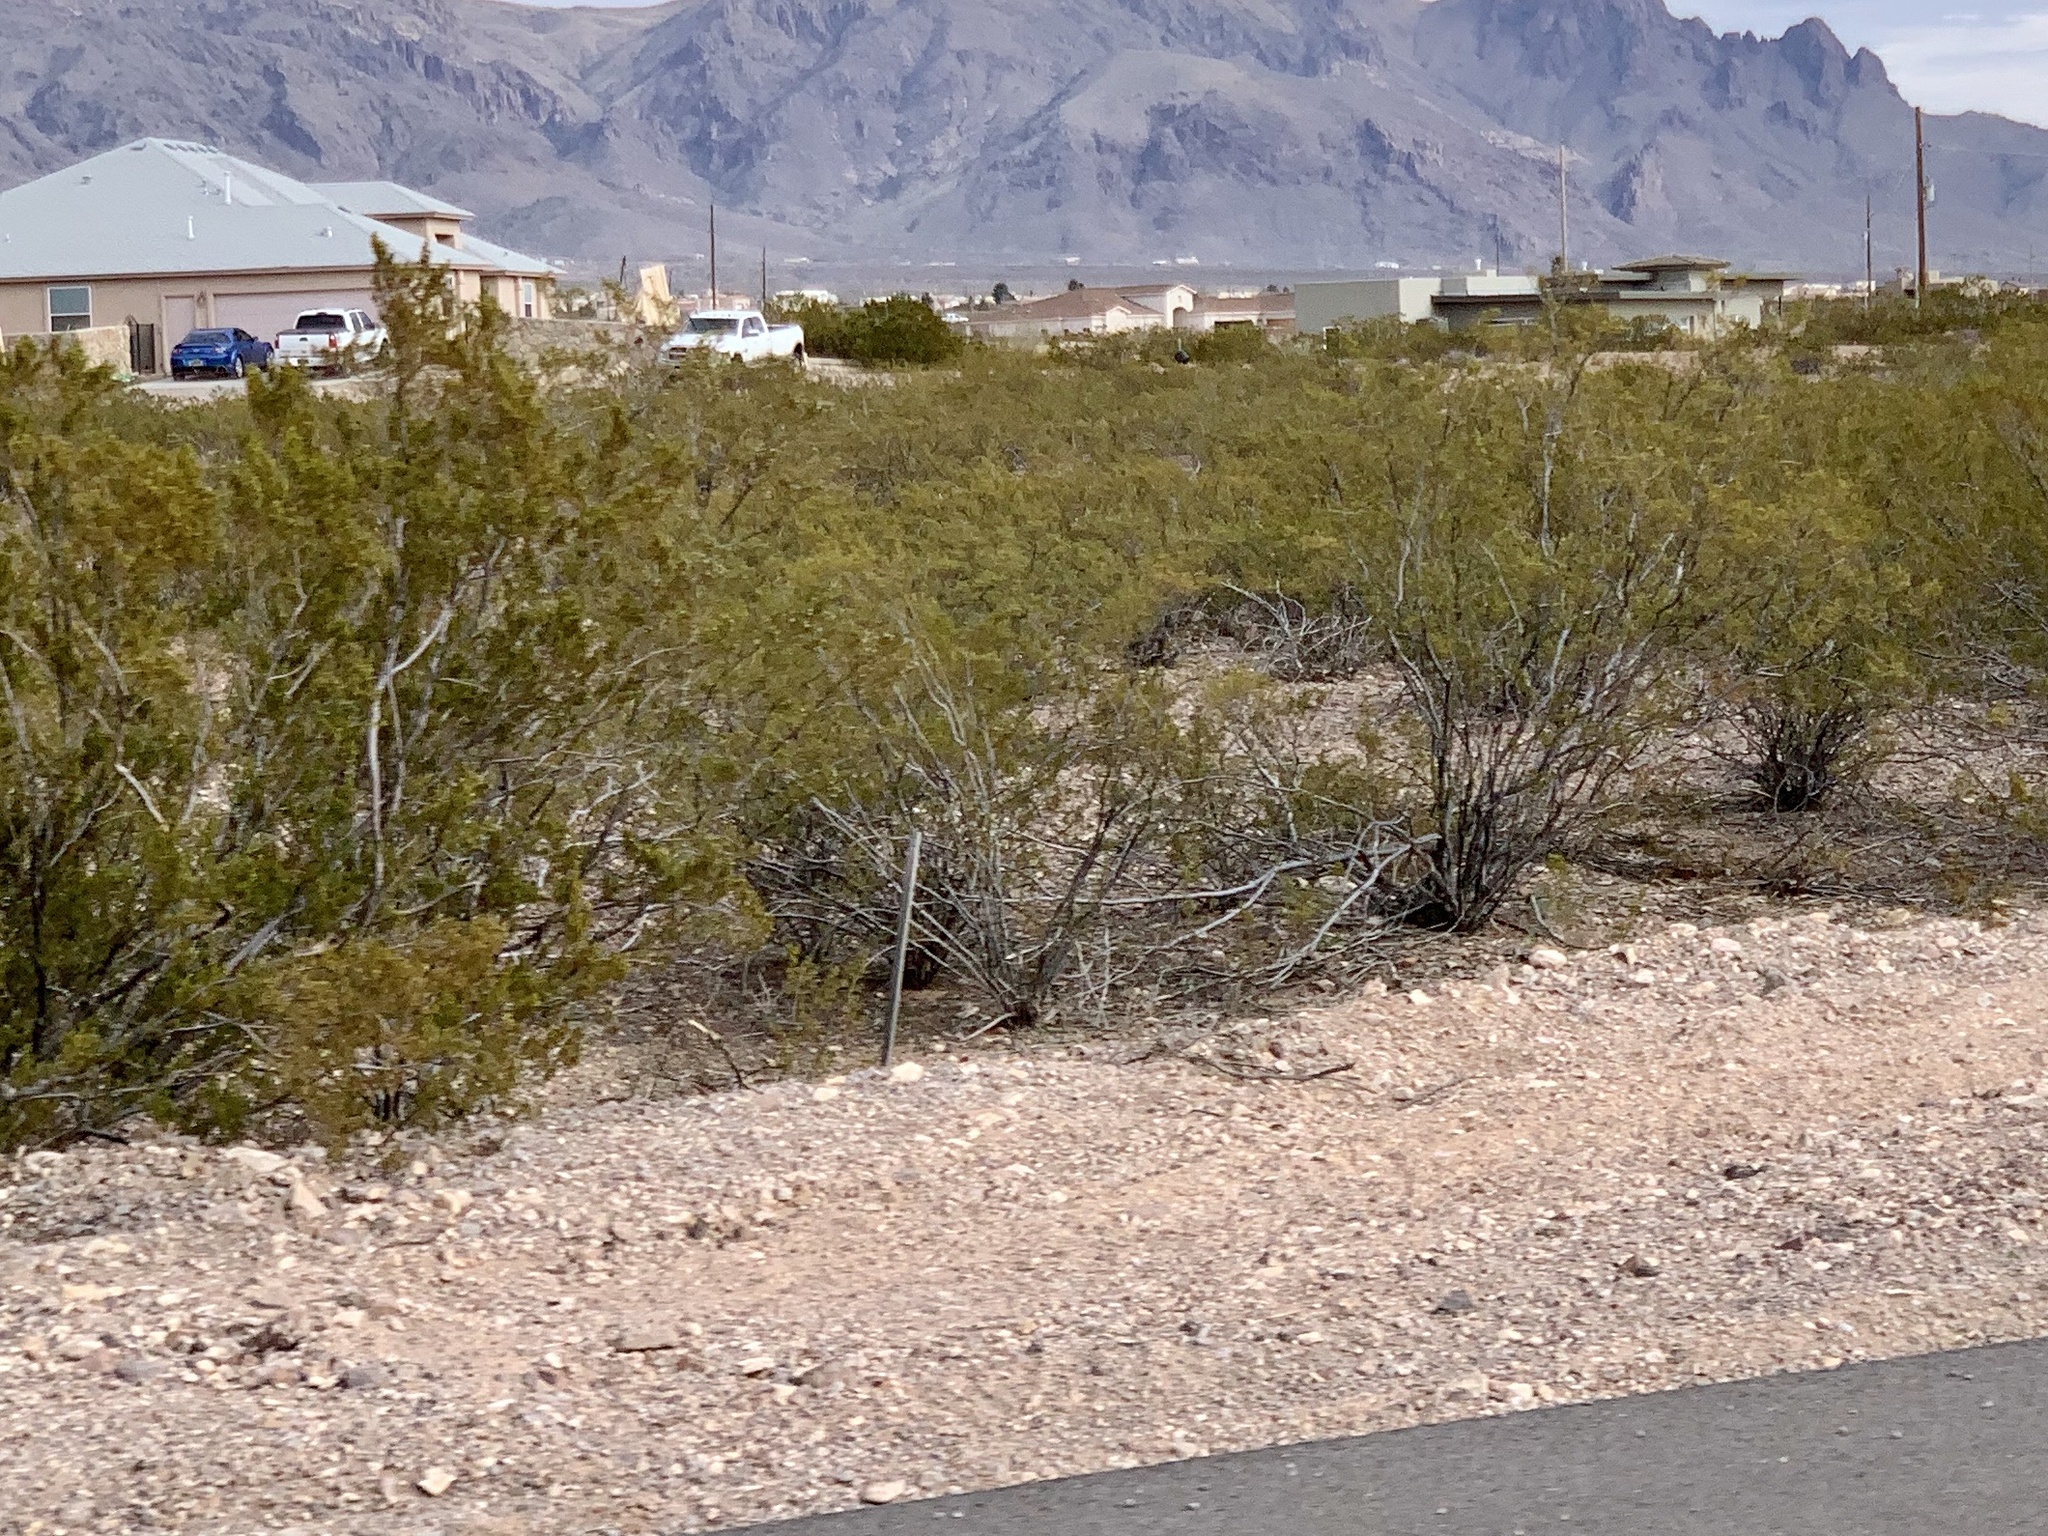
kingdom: Plantae
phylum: Tracheophyta
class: Magnoliopsida
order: Zygophyllales
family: Zygophyllaceae
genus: Larrea
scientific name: Larrea tridentata
